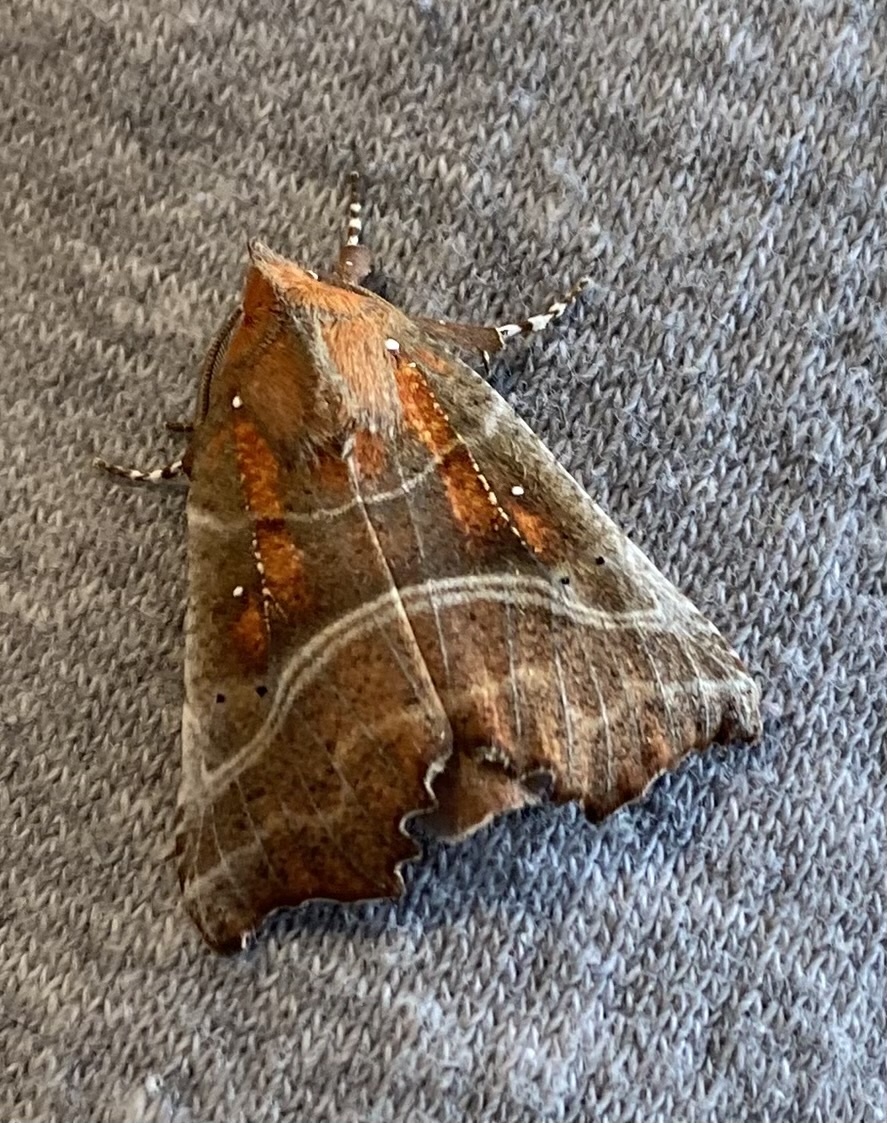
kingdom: Animalia
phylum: Arthropoda
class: Insecta
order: Lepidoptera
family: Erebidae
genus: Scoliopteryx
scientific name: Scoliopteryx libatrix
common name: Herald
